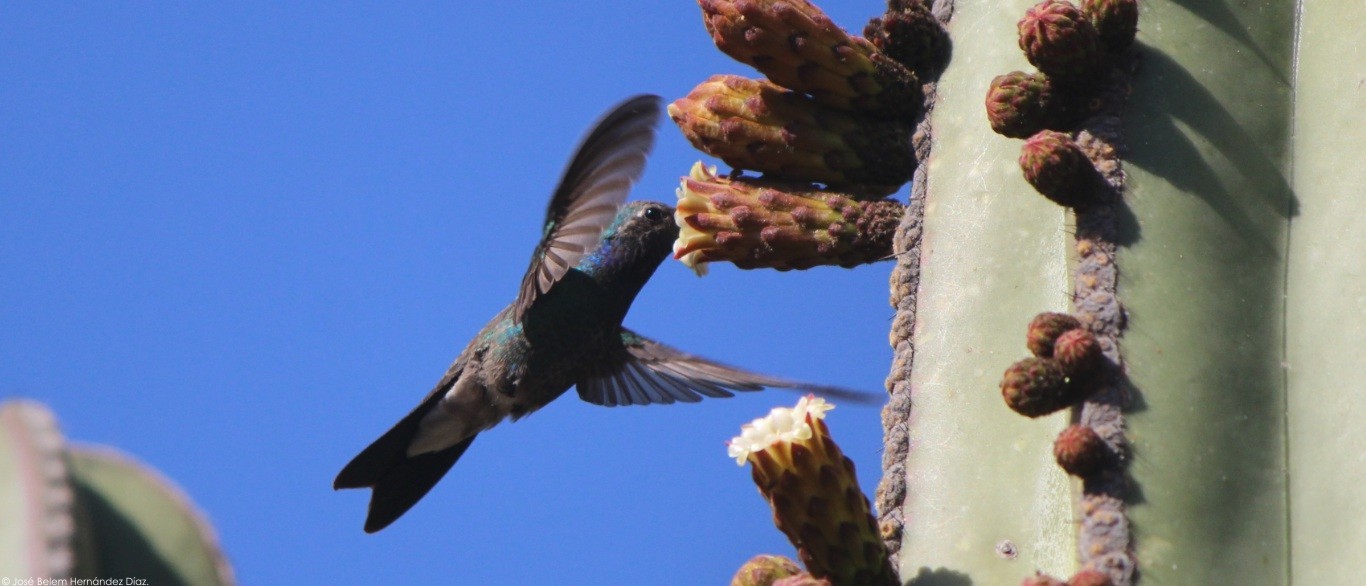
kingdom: Animalia
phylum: Chordata
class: Aves
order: Apodiformes
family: Trochilidae
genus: Cynanthus
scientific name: Cynanthus latirostris
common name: Broad-billed hummingbird
